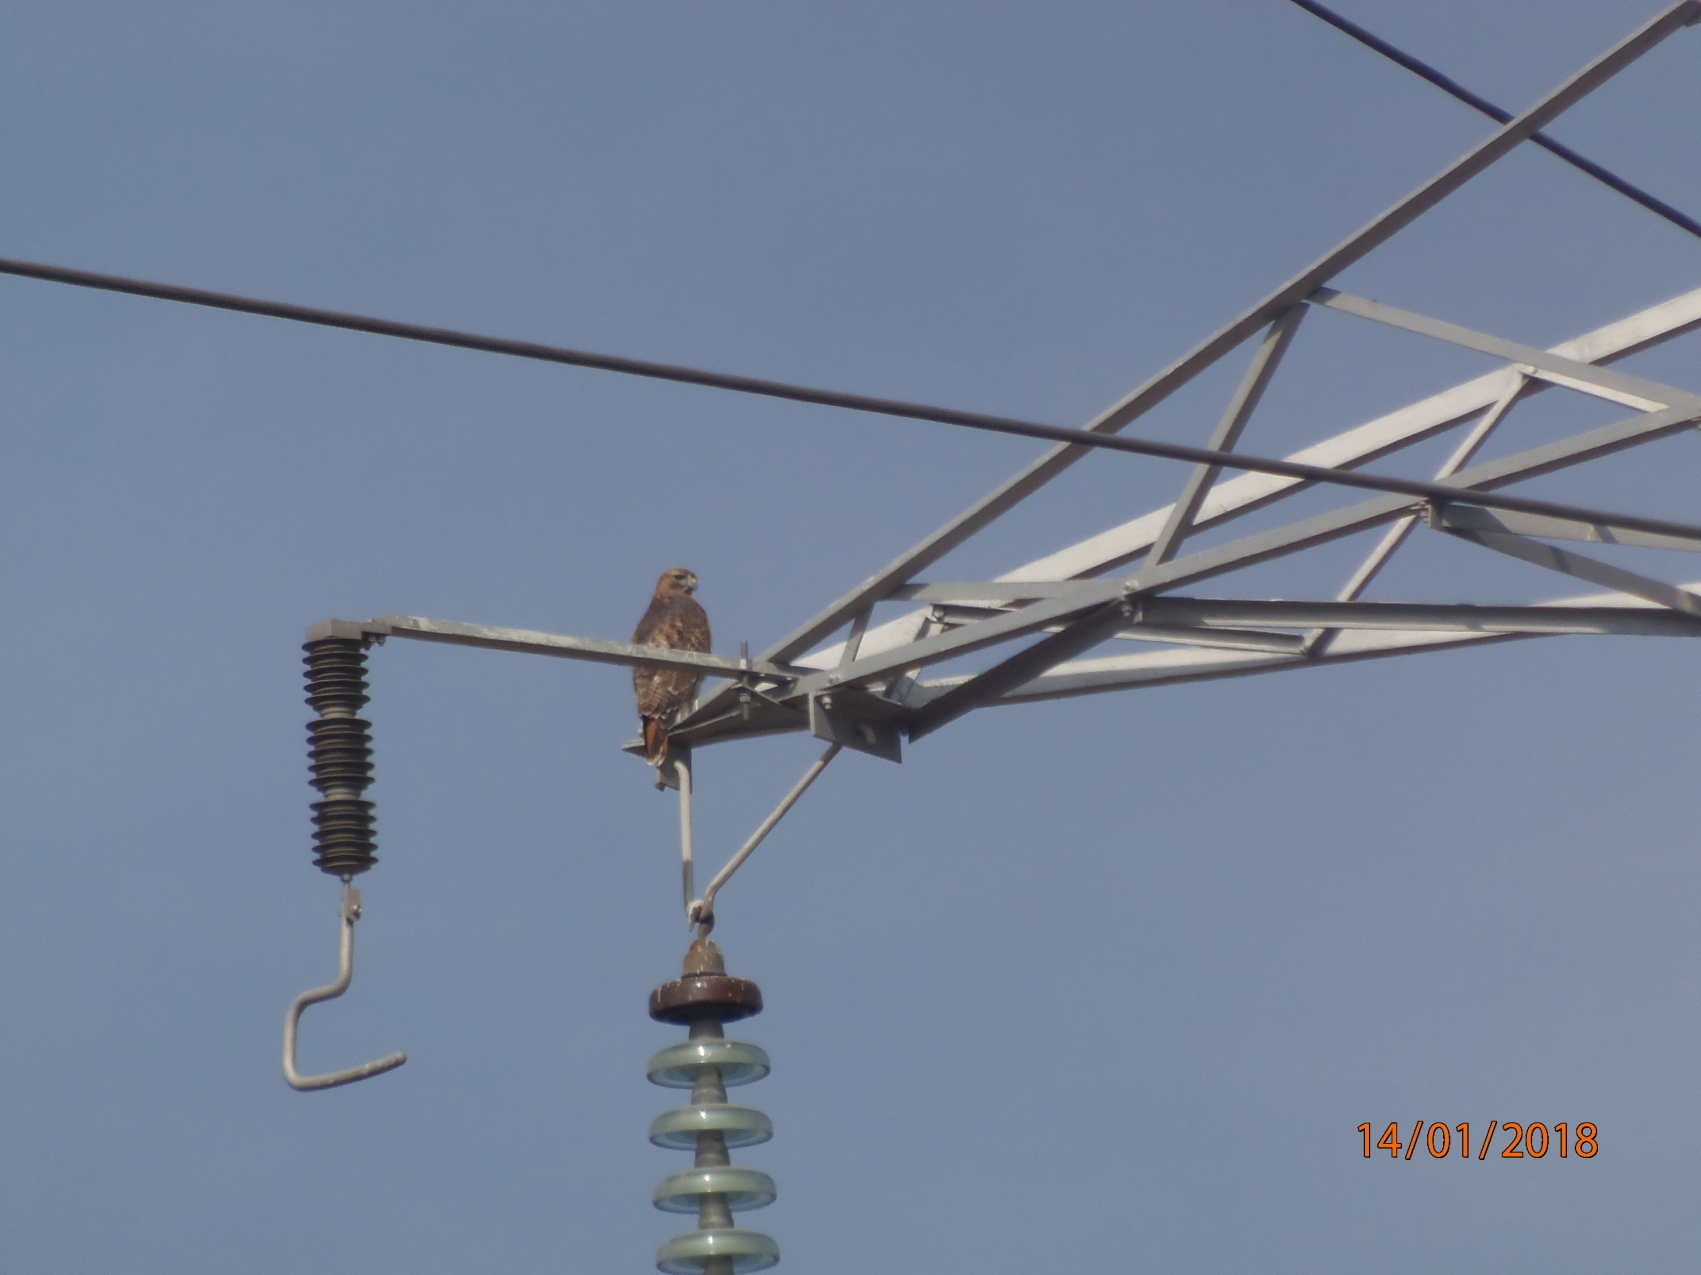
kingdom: Animalia
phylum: Chordata
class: Aves
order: Accipitriformes
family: Accipitridae
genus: Buteo
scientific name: Buteo jamaicensis
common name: Red-tailed hawk
